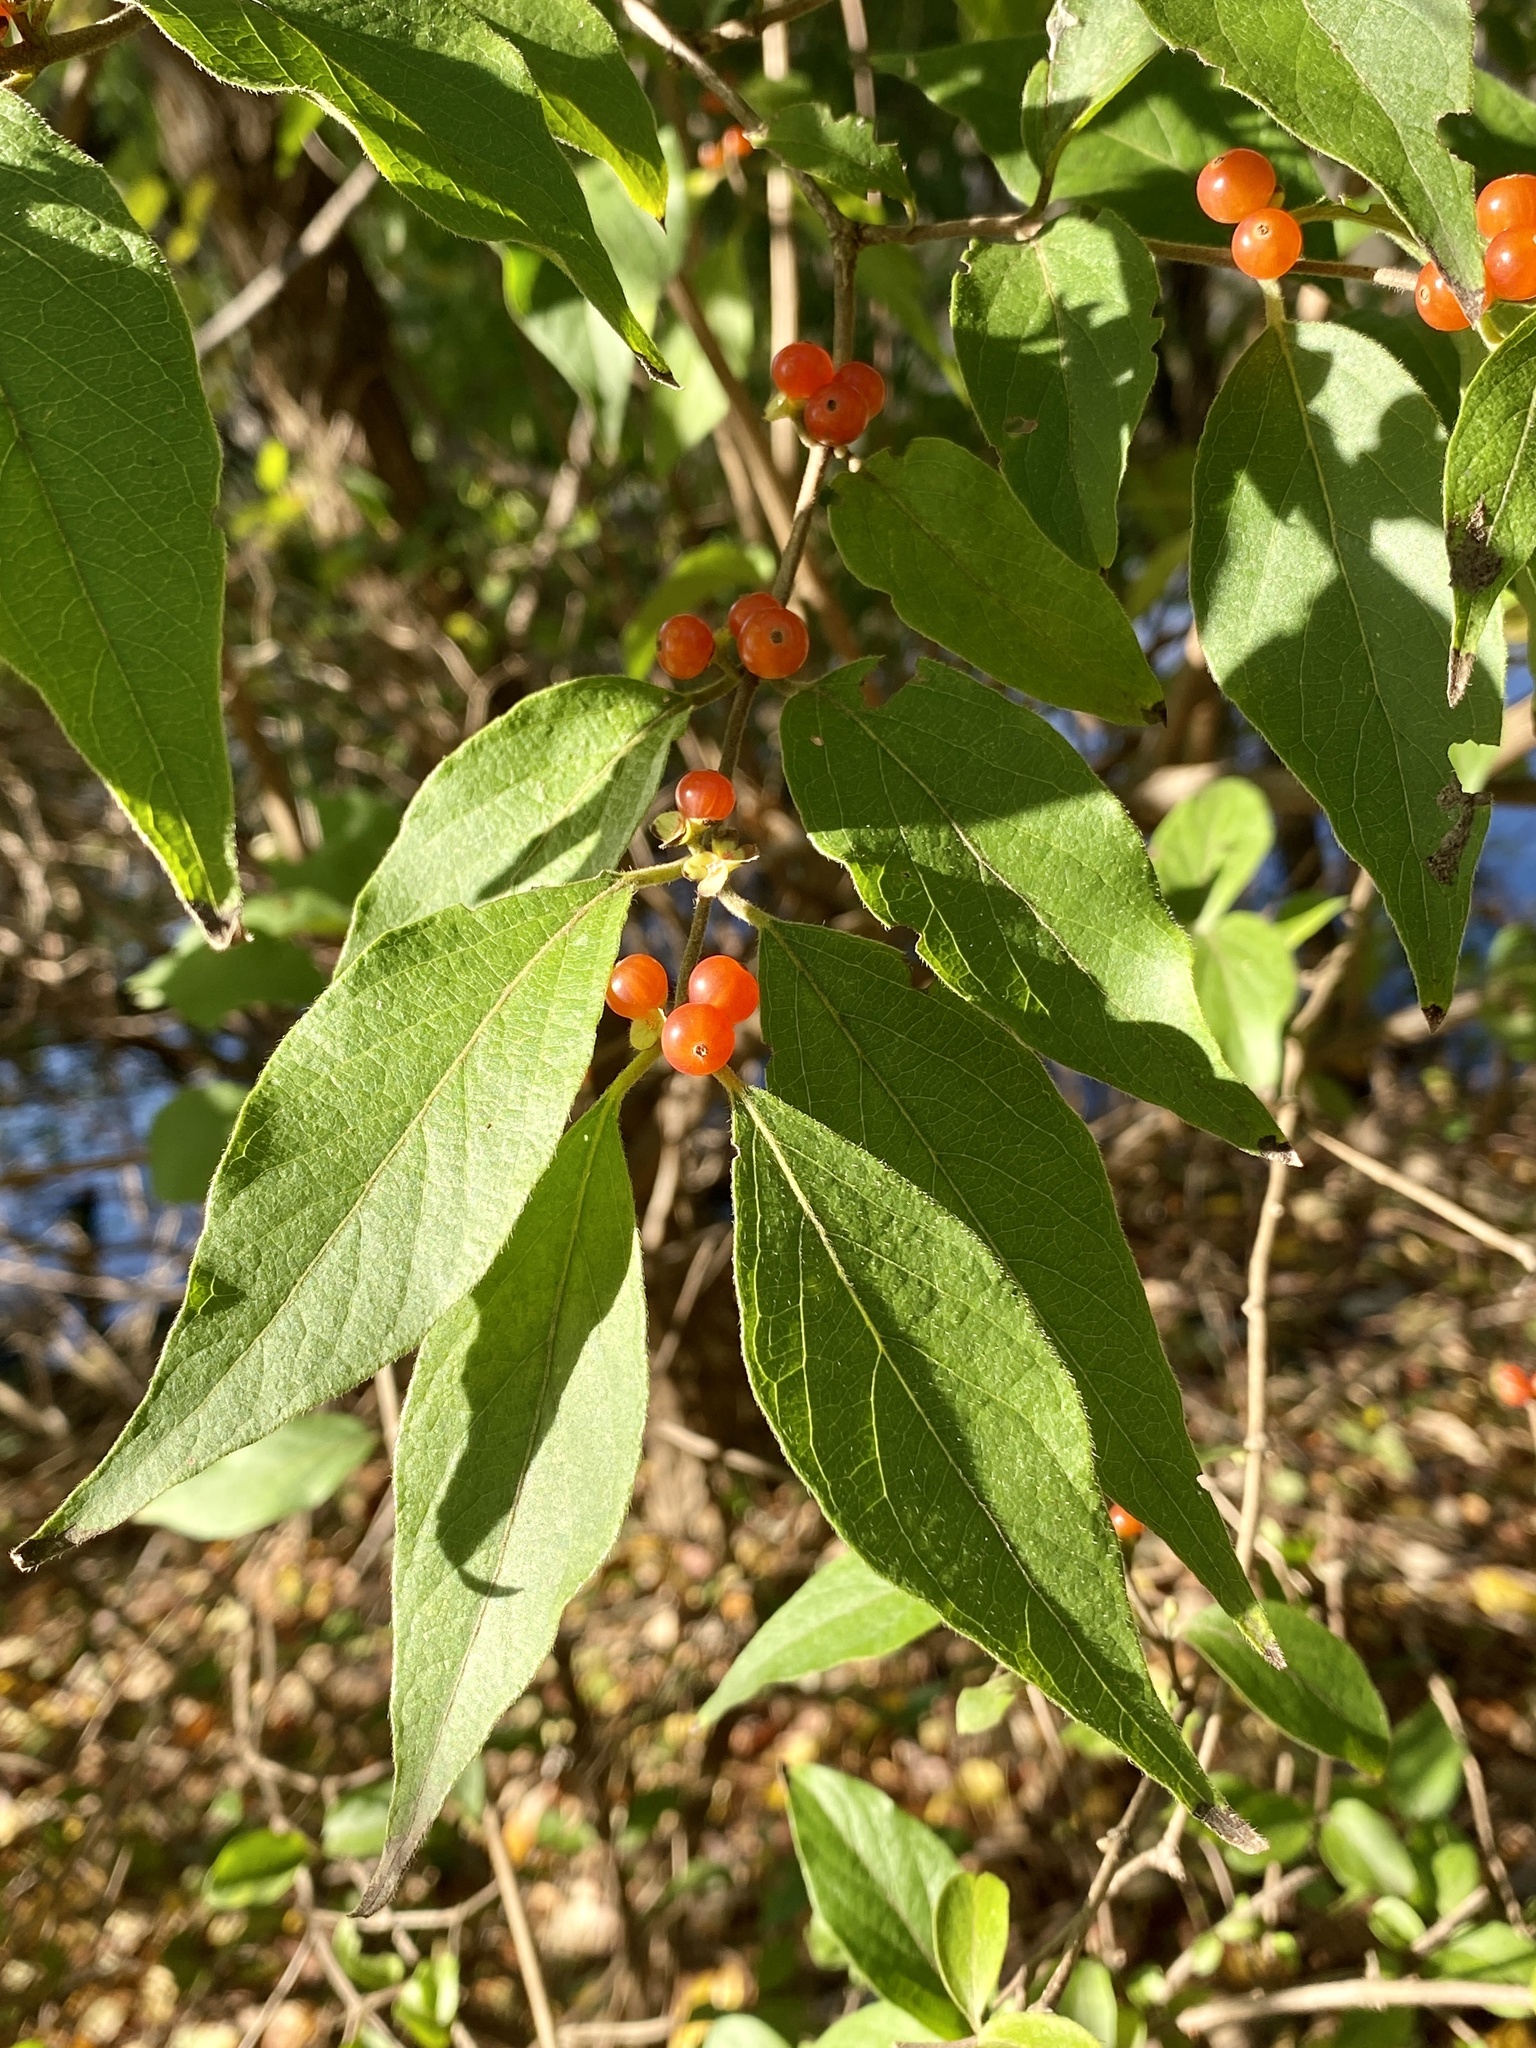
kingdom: Plantae
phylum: Tracheophyta
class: Magnoliopsida
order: Dipsacales
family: Caprifoliaceae
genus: Lonicera
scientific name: Lonicera maackii
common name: Amur honeysuckle
